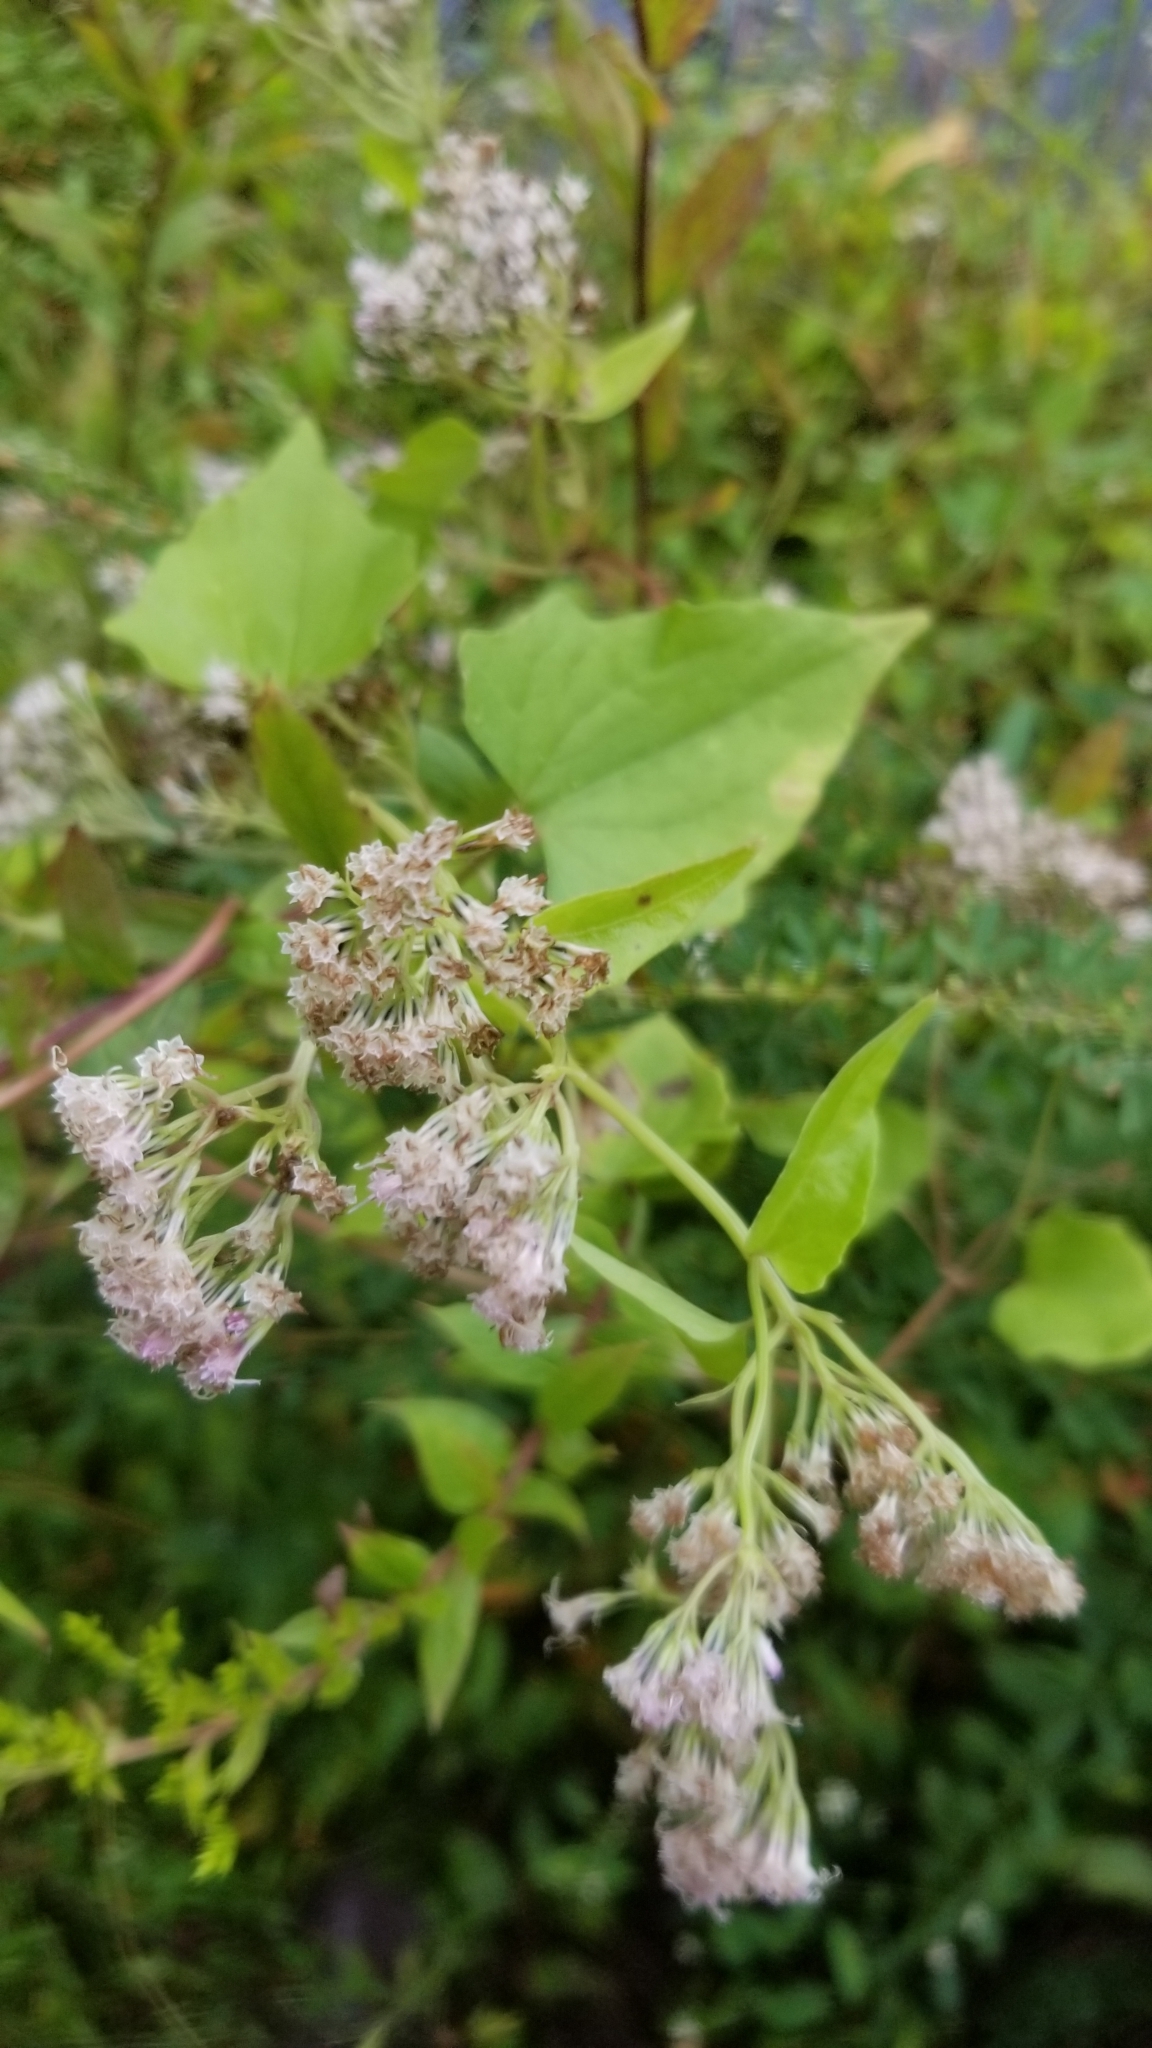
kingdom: Plantae
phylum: Tracheophyta
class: Magnoliopsida
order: Asterales
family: Asteraceae
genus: Mikania
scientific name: Mikania scandens
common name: Climbing hempvine
